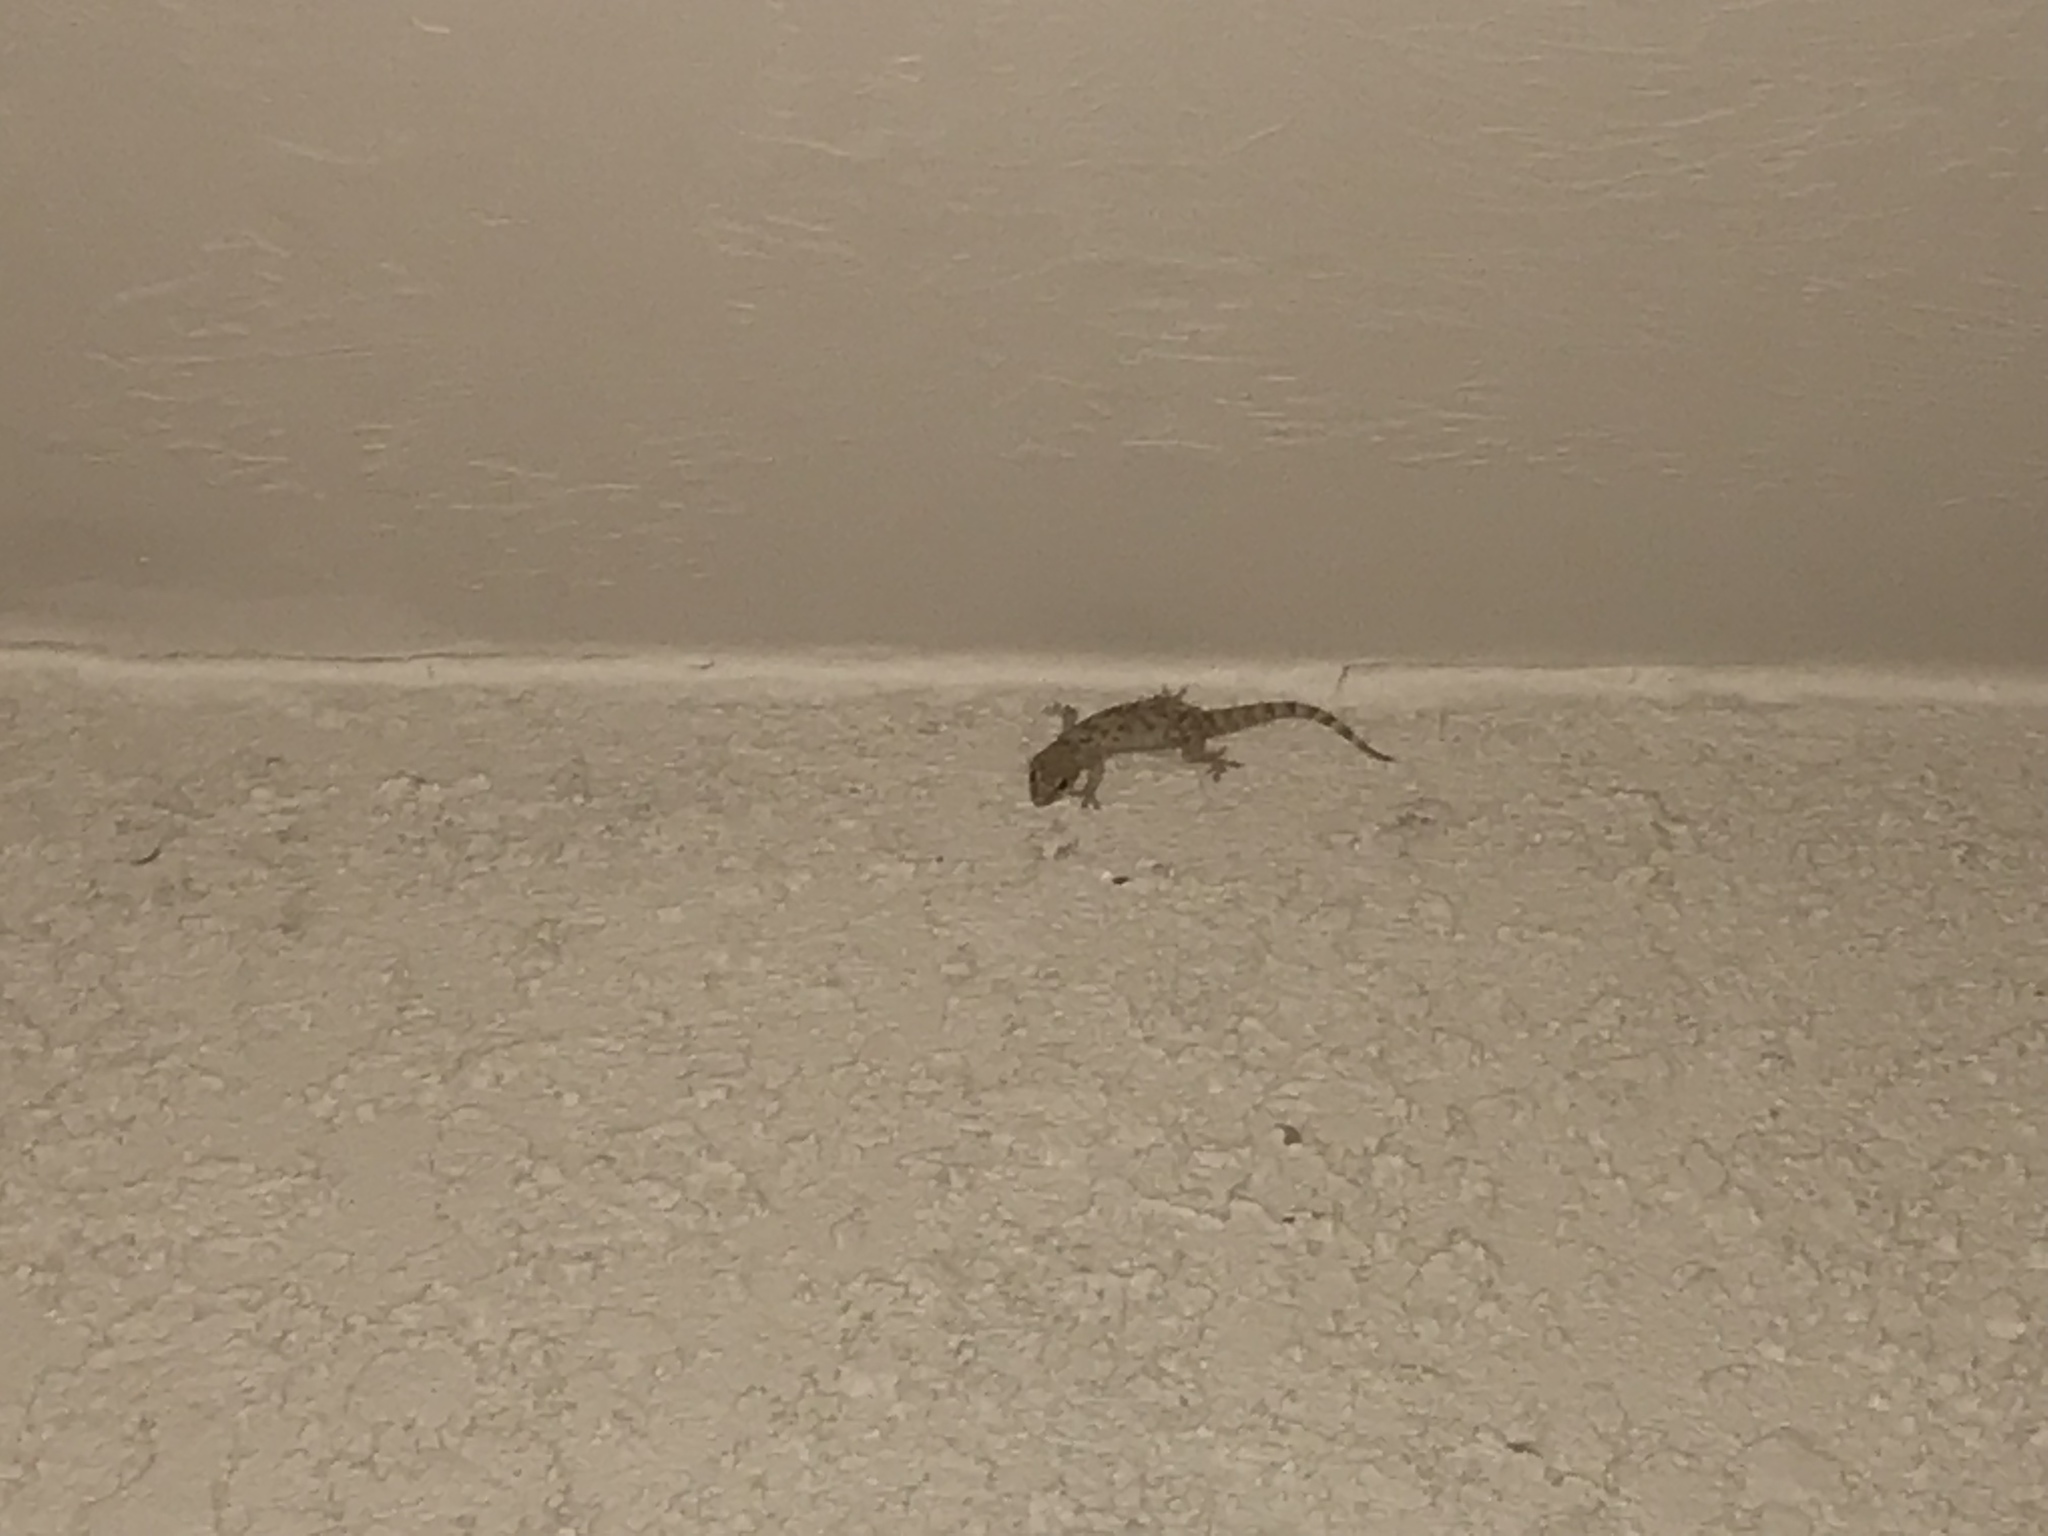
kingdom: Animalia
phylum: Chordata
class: Squamata
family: Gekkonidae
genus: Hemidactylus
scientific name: Hemidactylus turcicus
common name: Turkish gecko
